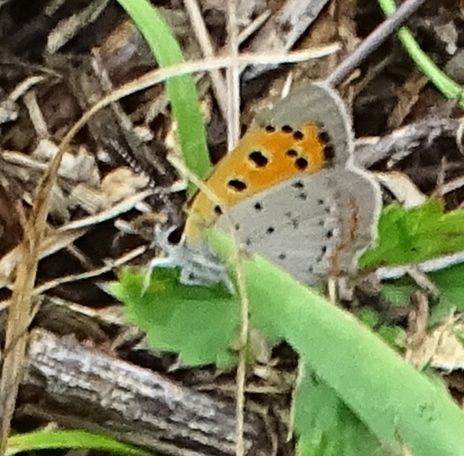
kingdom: Animalia
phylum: Arthropoda
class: Insecta
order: Lepidoptera
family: Lycaenidae
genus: Lycaena
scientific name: Lycaena hypophlaeas
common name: American copper
